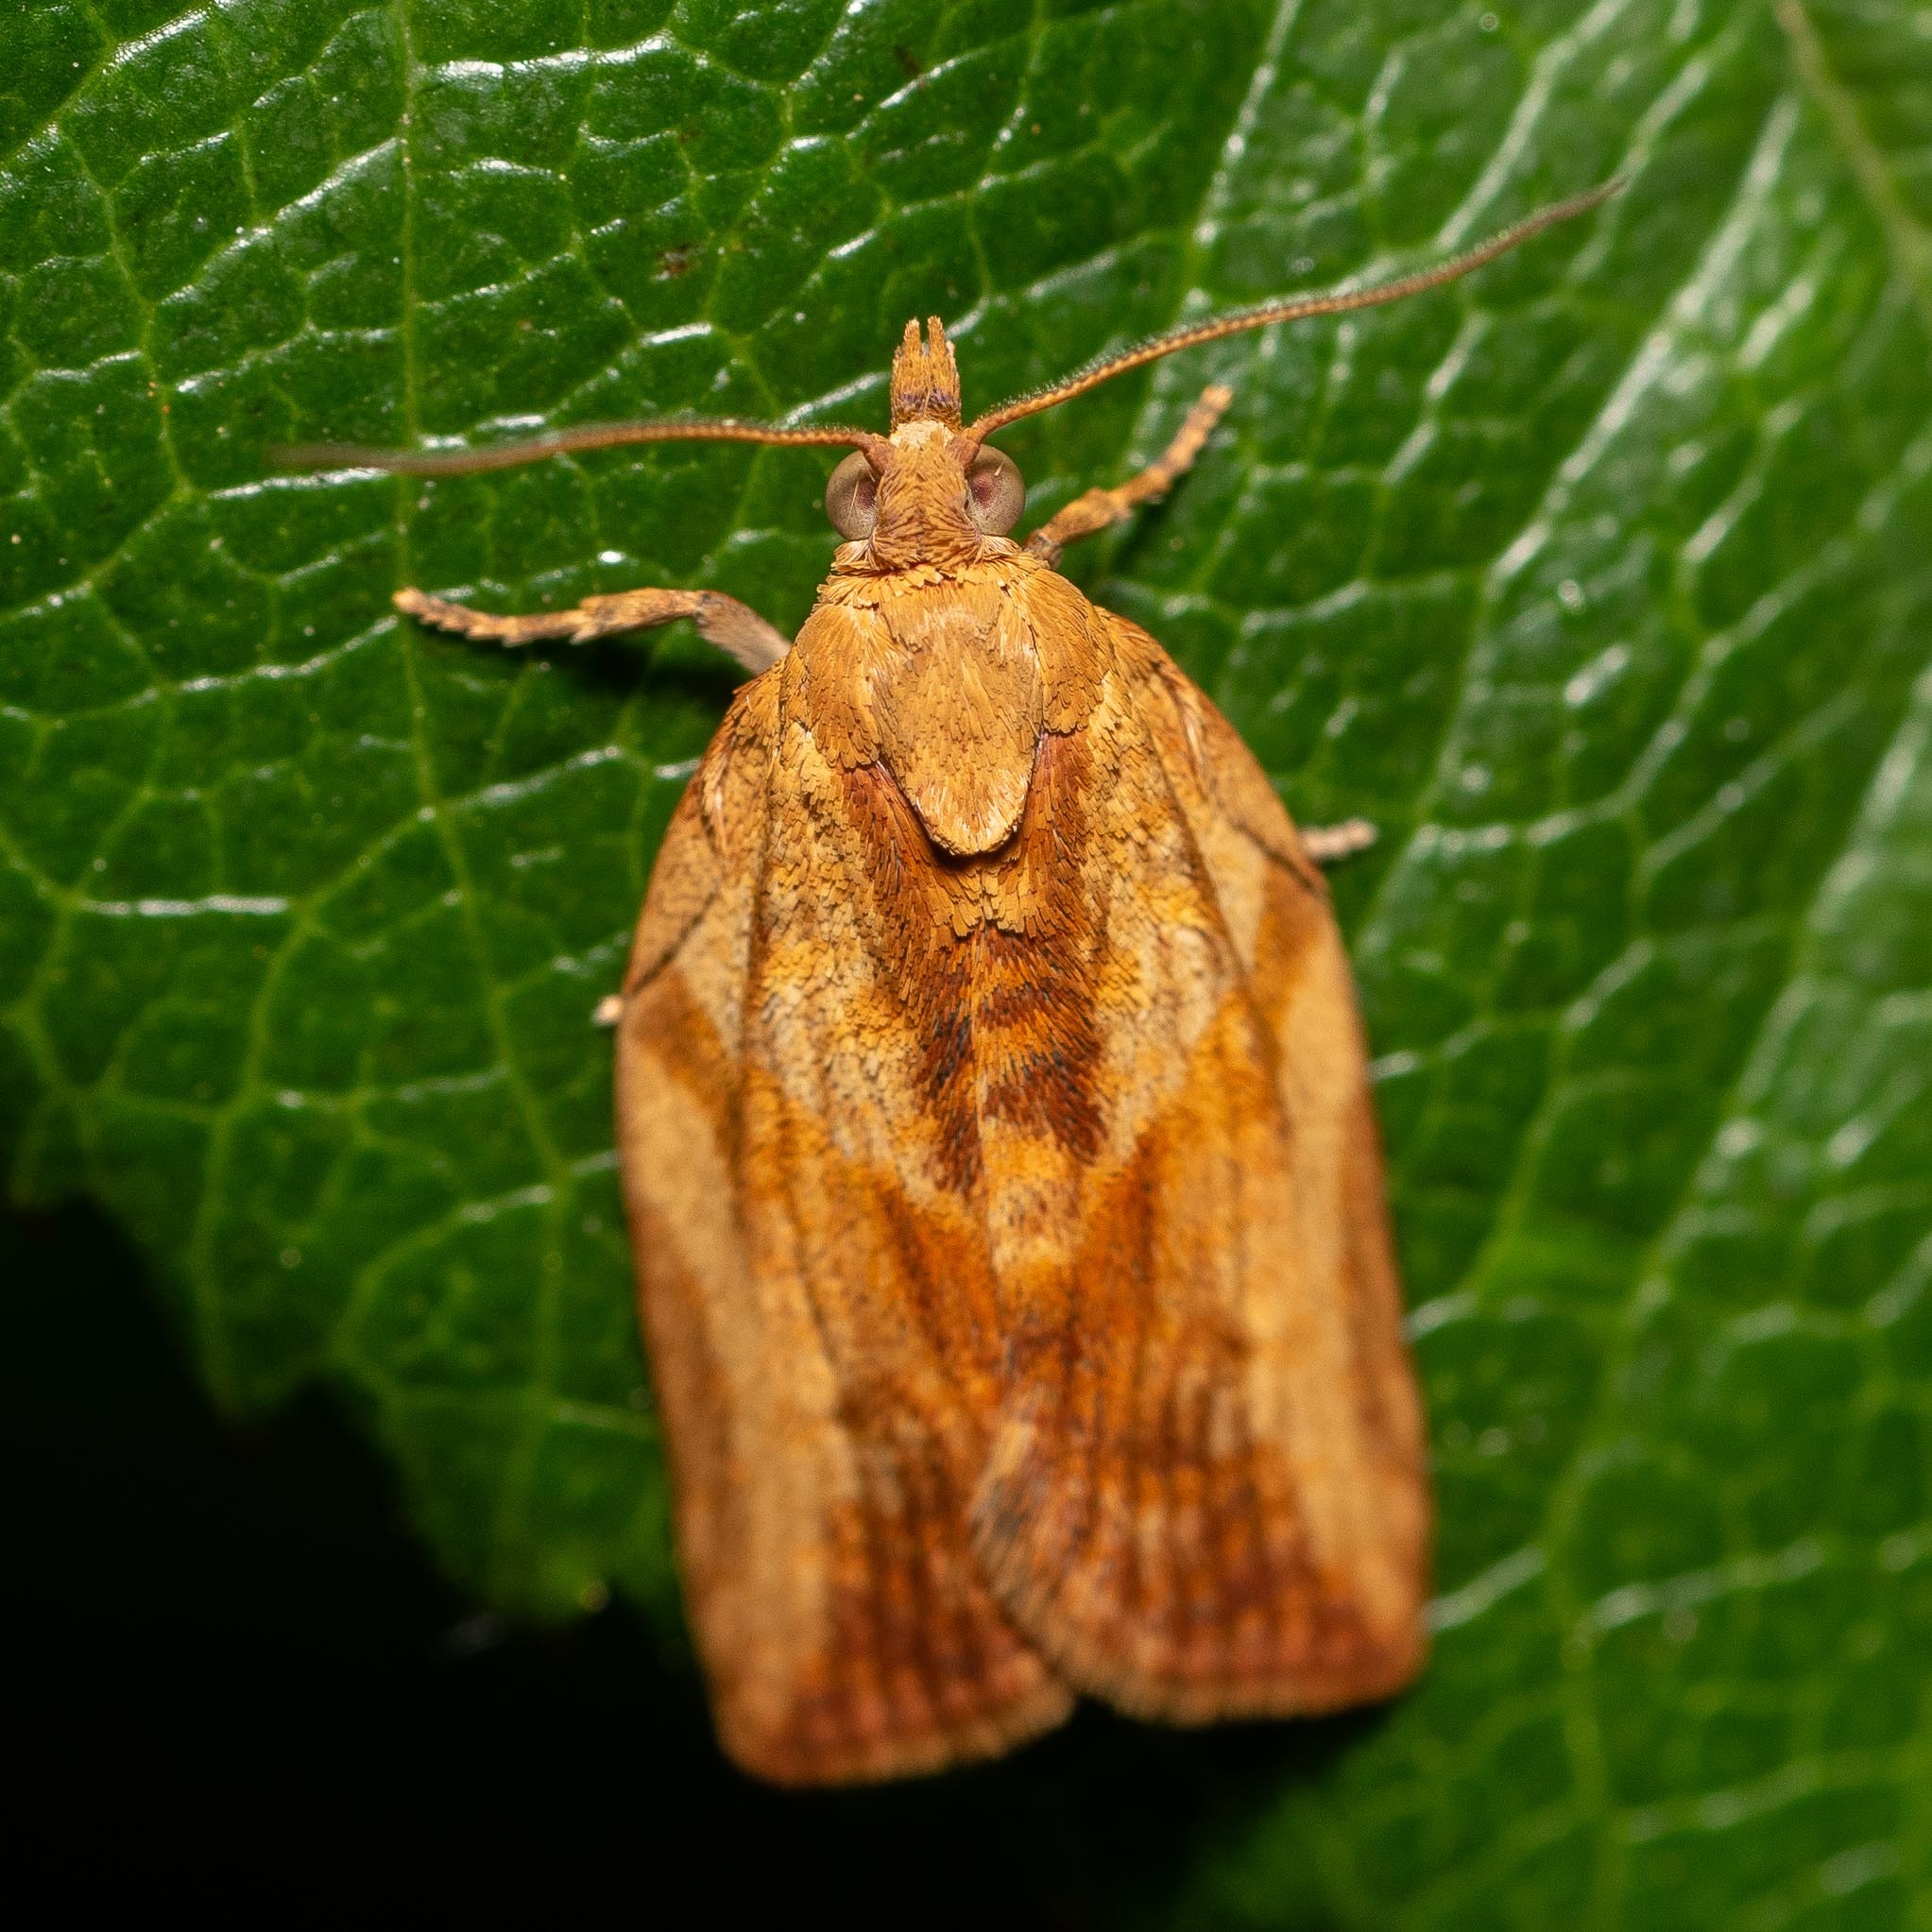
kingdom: Animalia
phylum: Arthropoda
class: Insecta
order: Lepidoptera
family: Tortricidae
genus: Epiphyas
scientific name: Epiphyas postvittana
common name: Light brown apple moth
